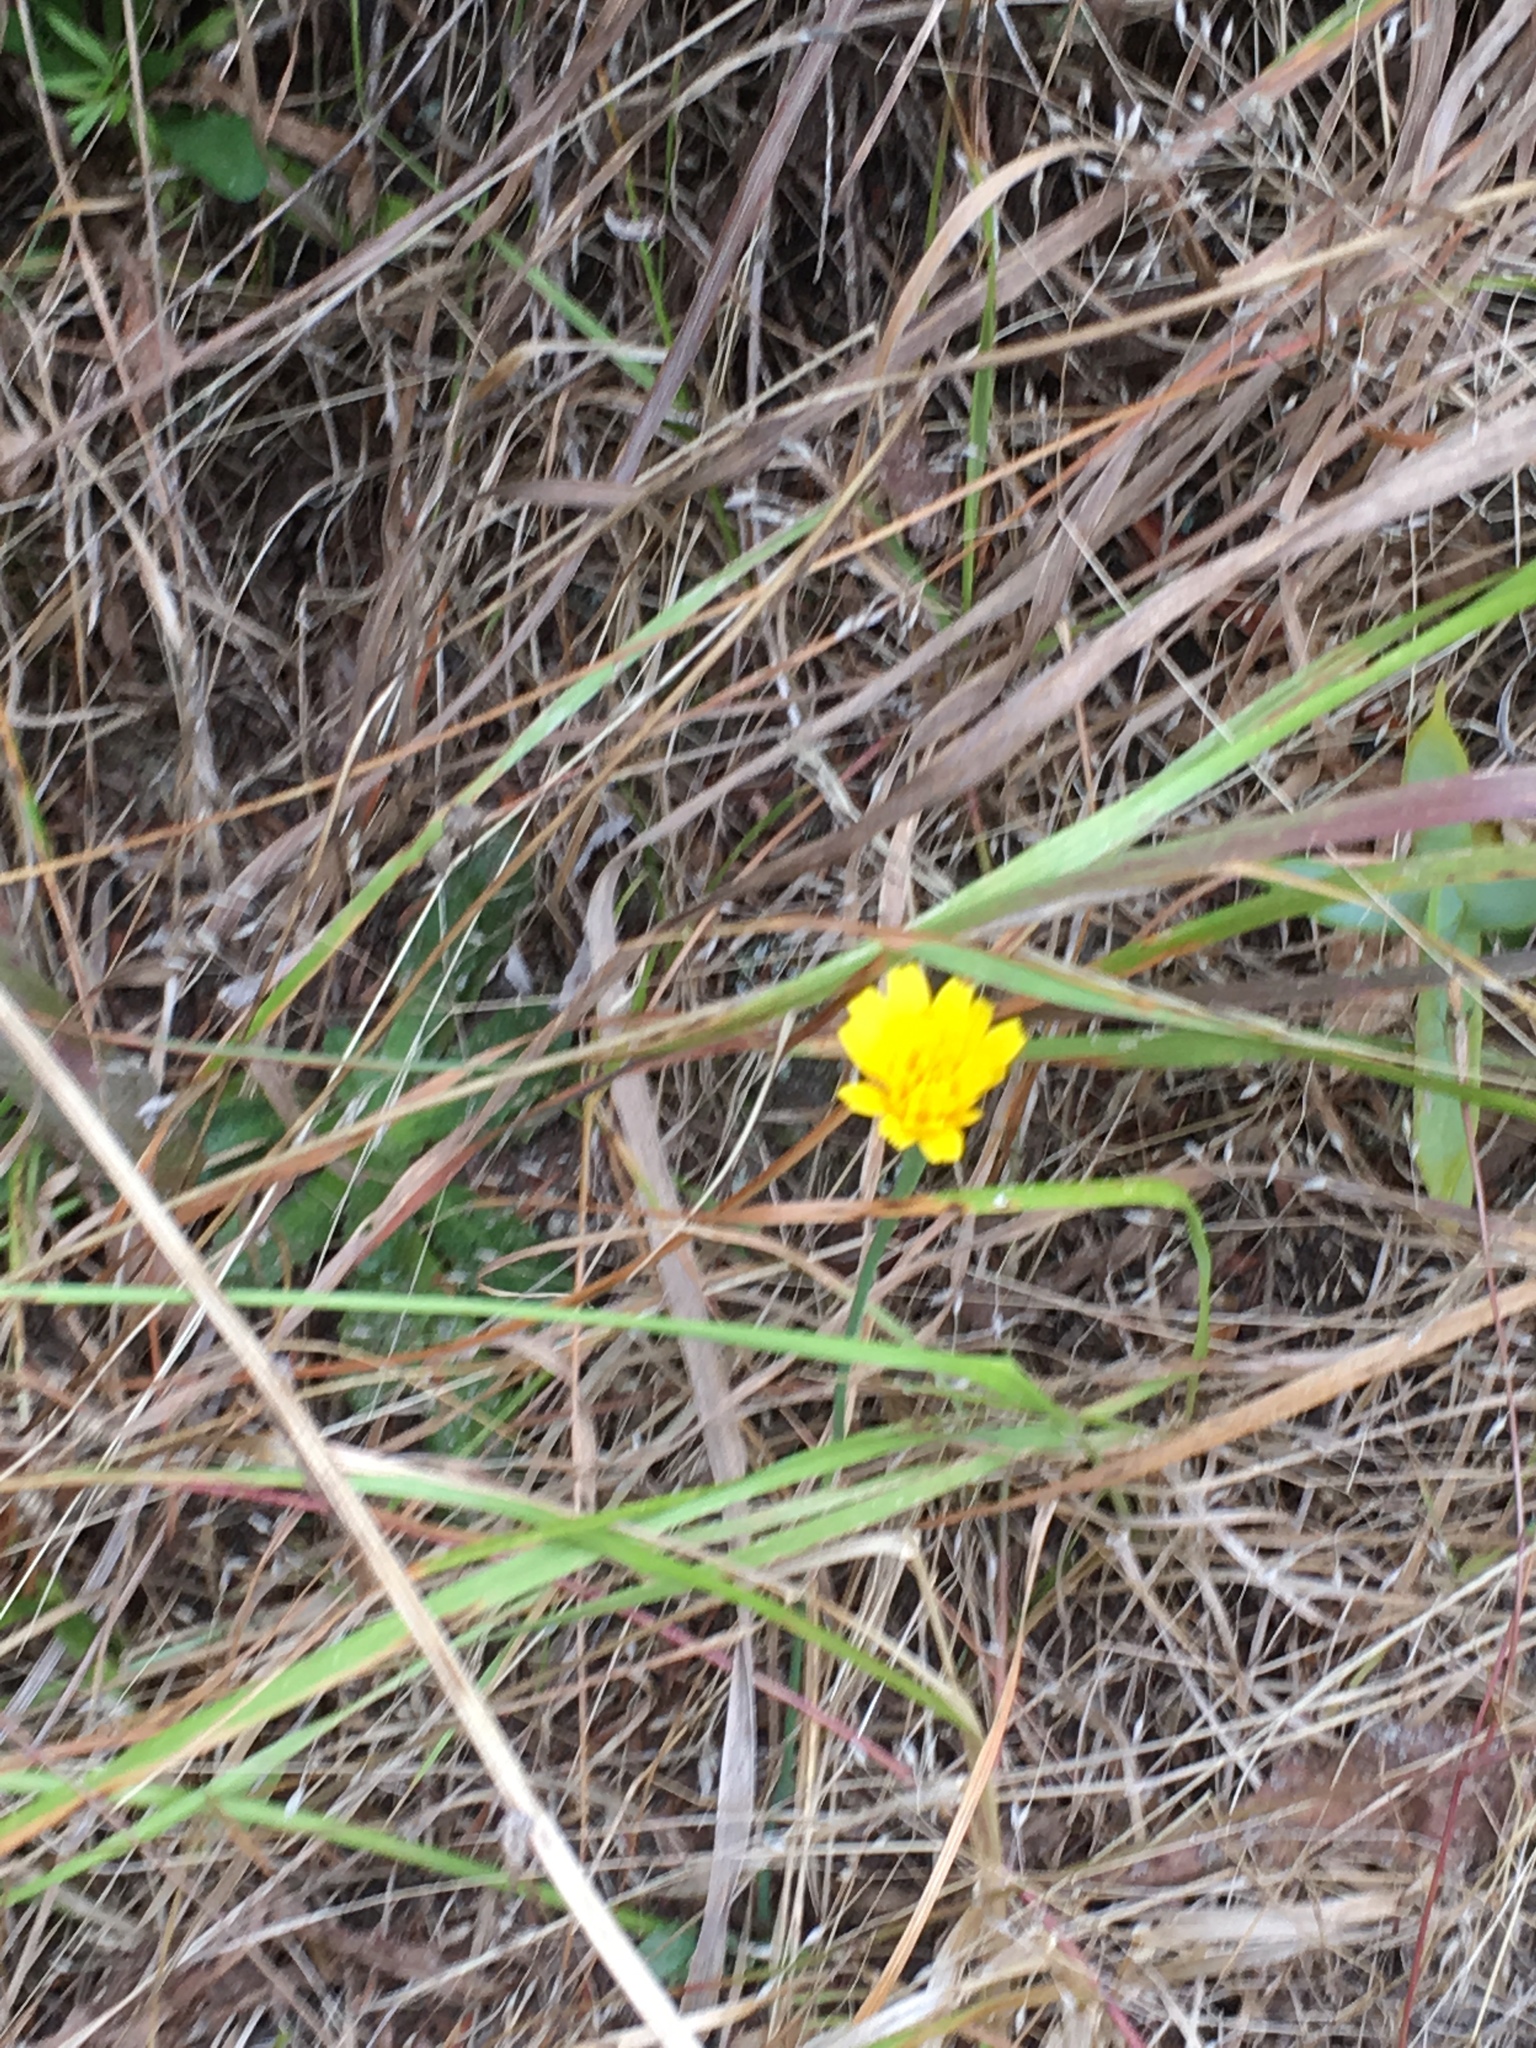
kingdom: Plantae
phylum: Tracheophyta
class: Magnoliopsida
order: Asterales
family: Asteraceae
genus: Hypochaeris
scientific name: Hypochaeris radicata
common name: Flatweed
